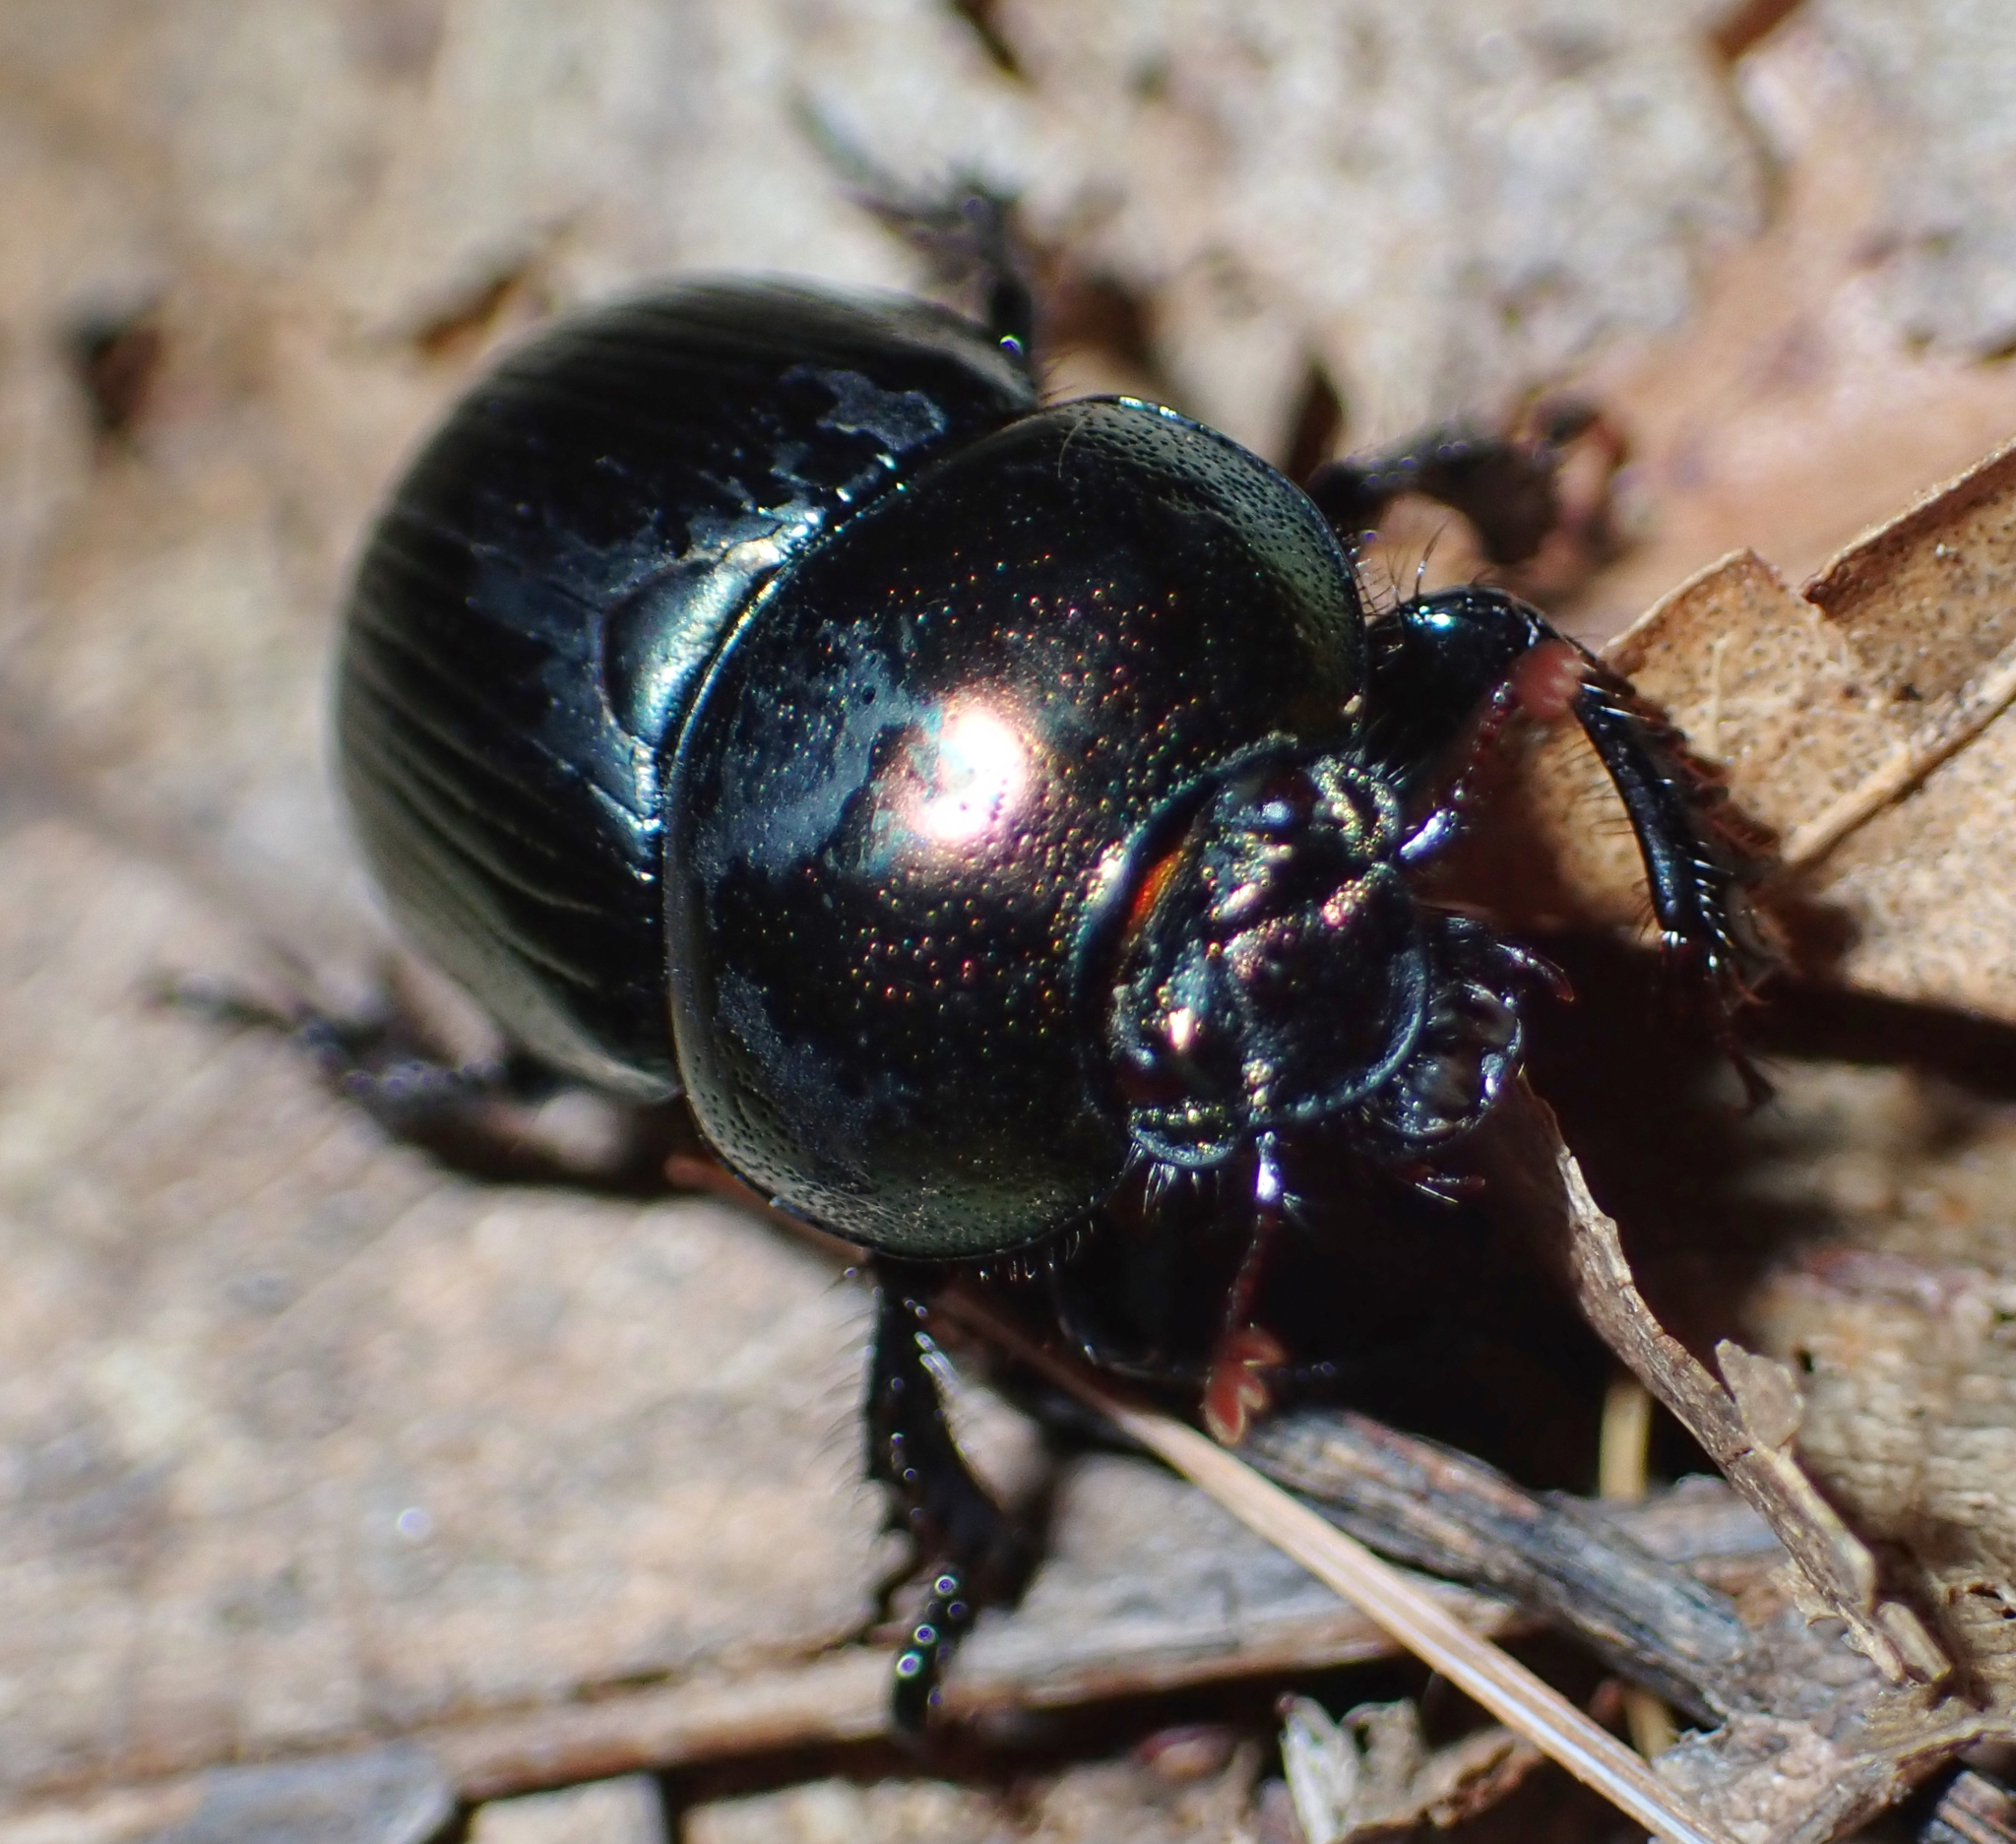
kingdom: Animalia
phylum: Arthropoda
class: Insecta
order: Coleoptera
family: Geotrupidae
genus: Geotrupes
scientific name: Geotrupes splendidus
